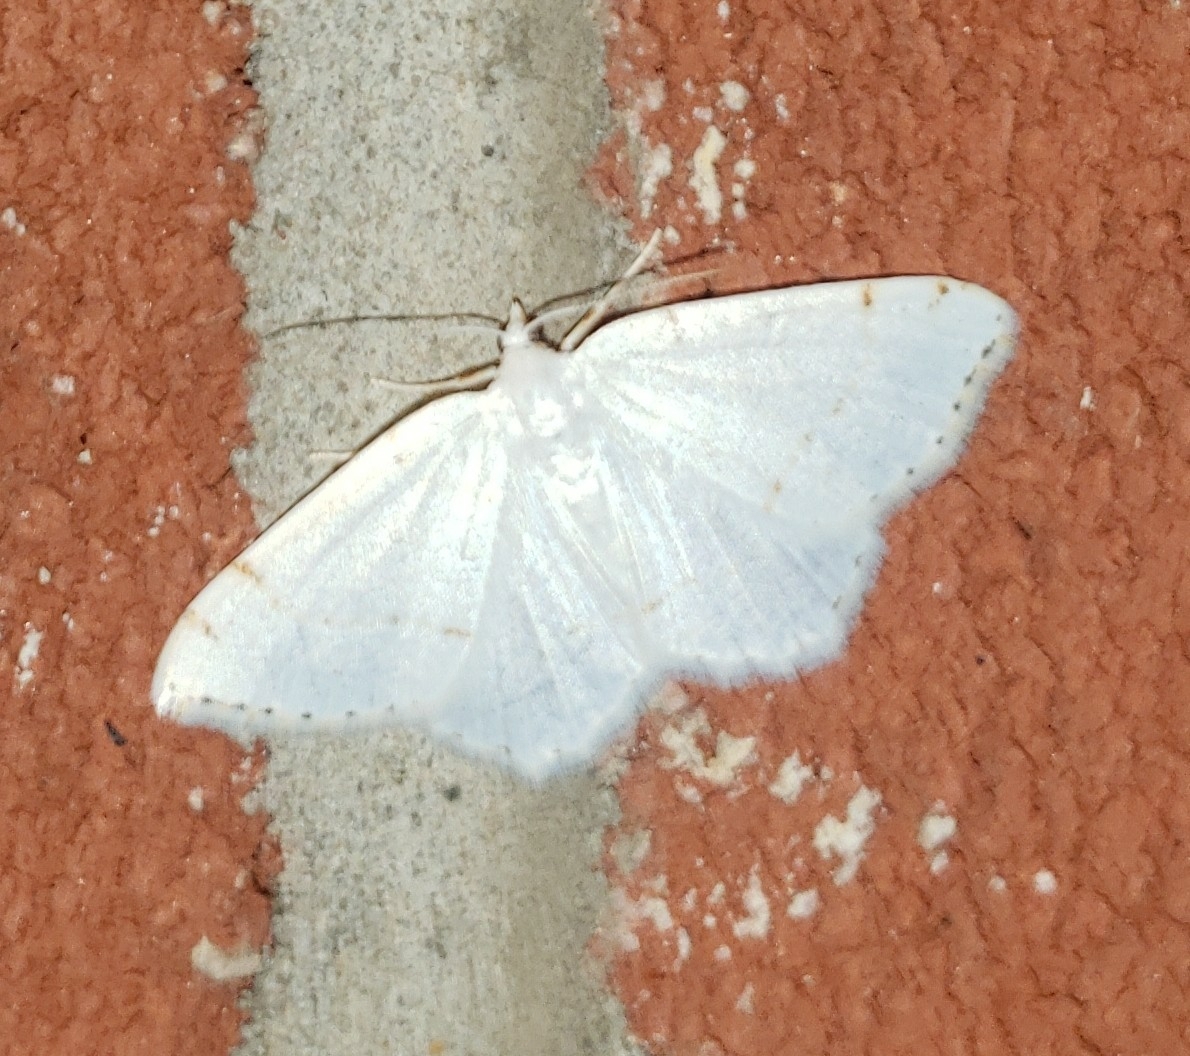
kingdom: Animalia
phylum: Arthropoda
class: Insecta
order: Lepidoptera
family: Geometridae
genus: Macaria
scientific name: Macaria pustularia
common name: Lesser maple spanworm moth
